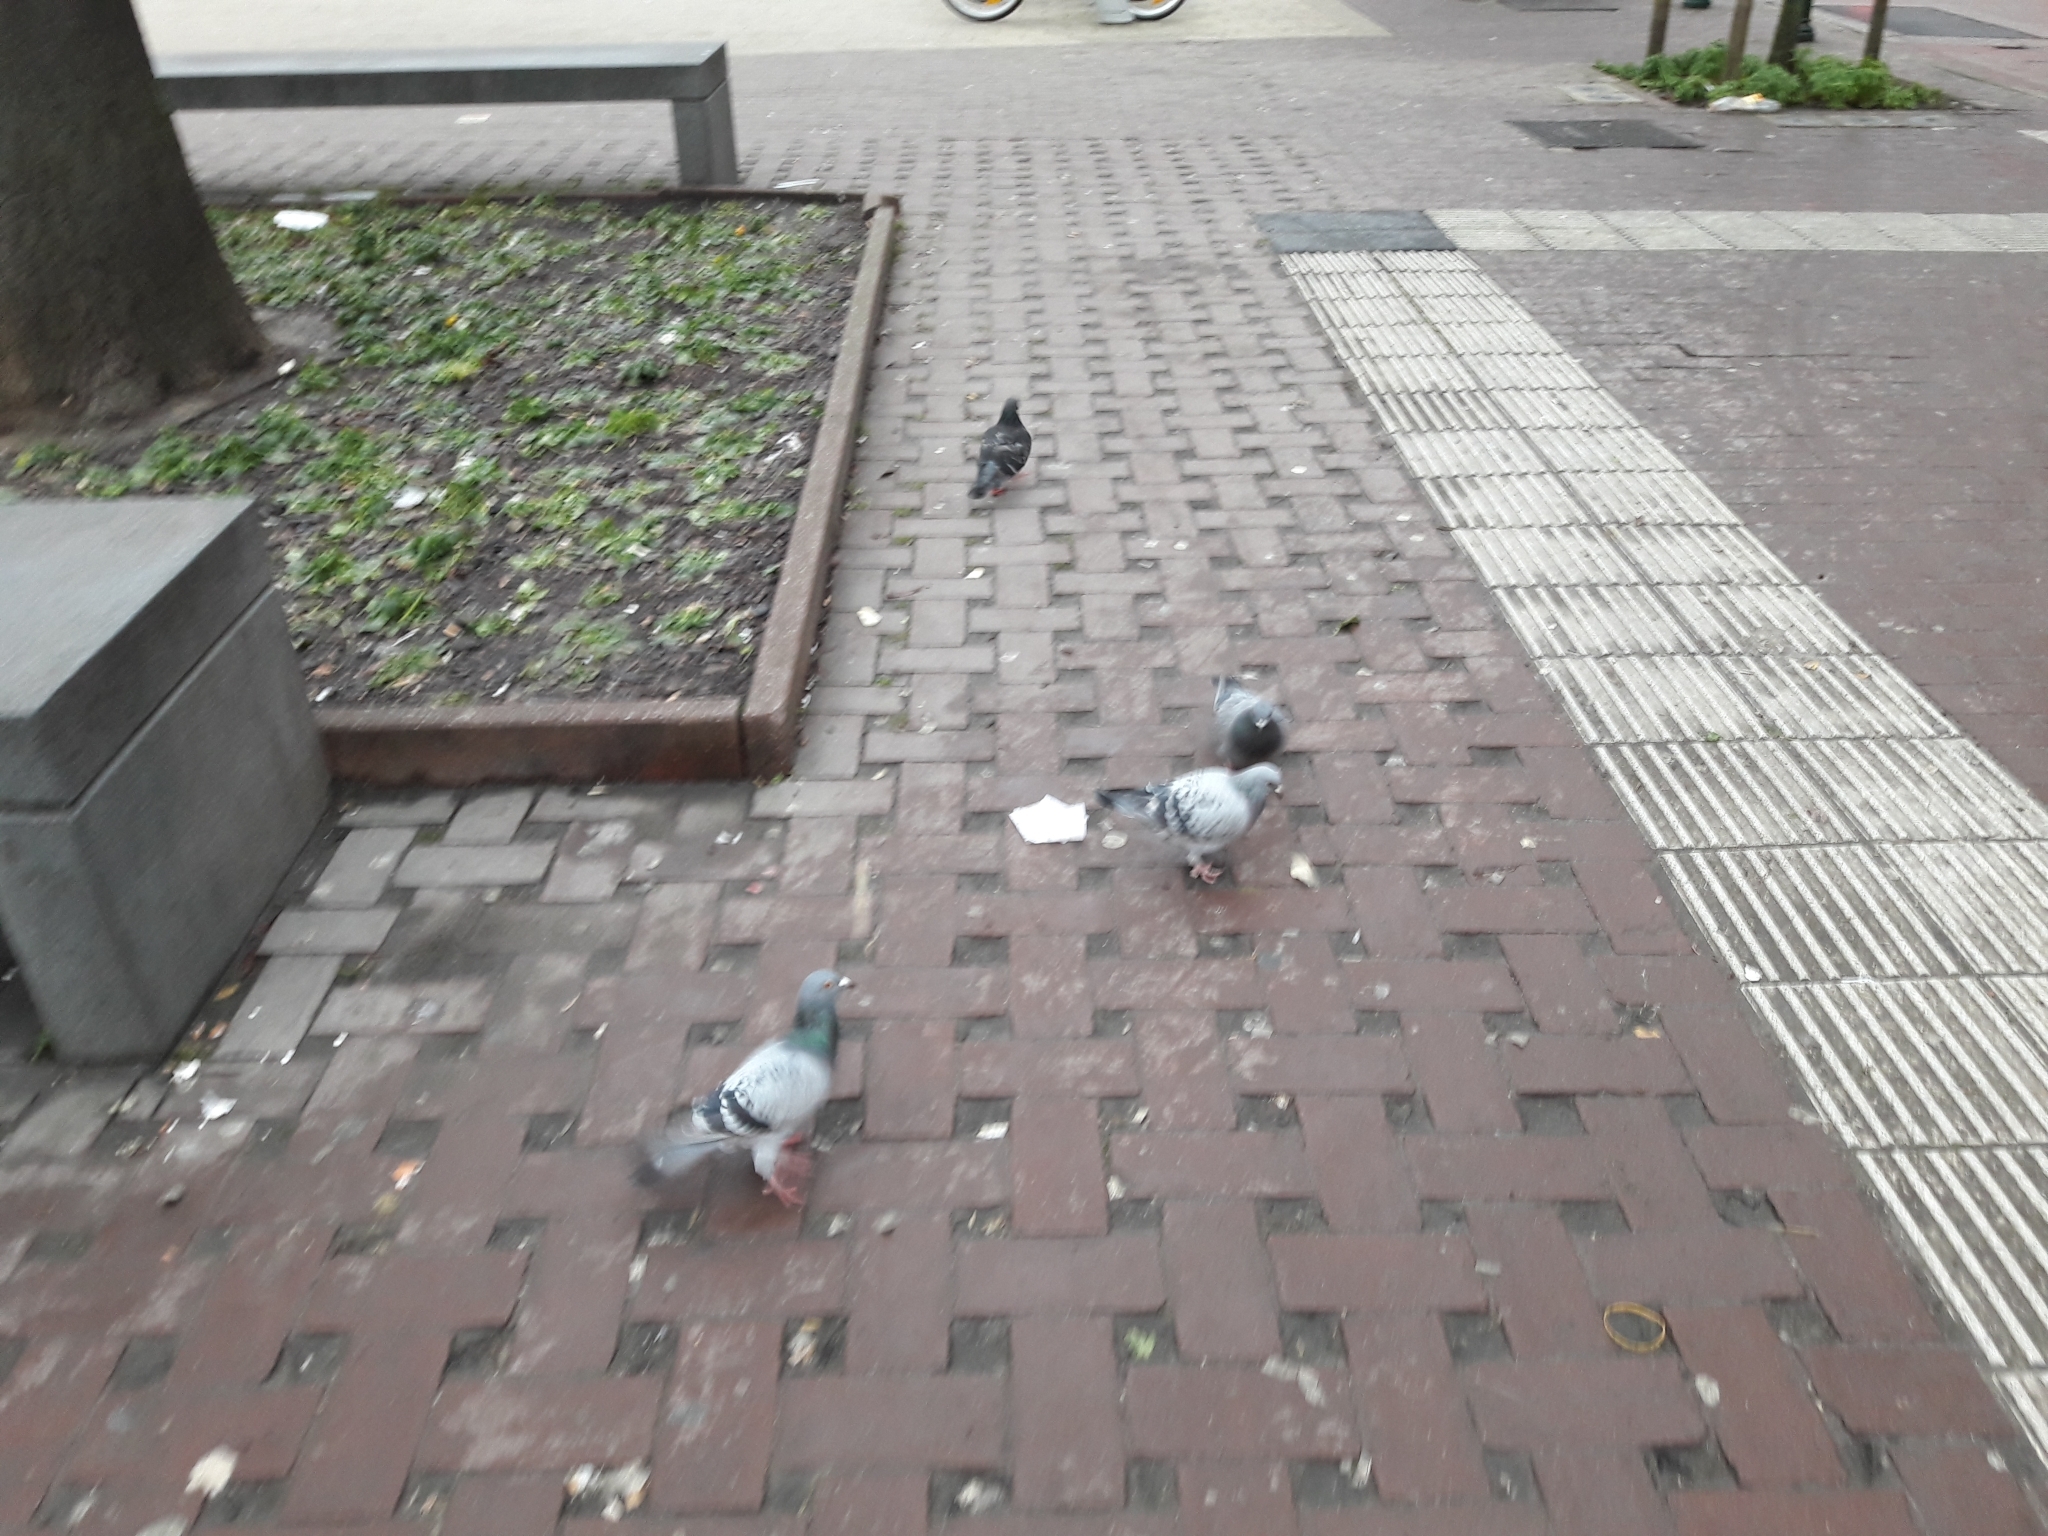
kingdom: Animalia
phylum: Chordata
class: Aves
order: Columbiformes
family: Columbidae
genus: Columba
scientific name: Columba livia
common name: Rock pigeon
